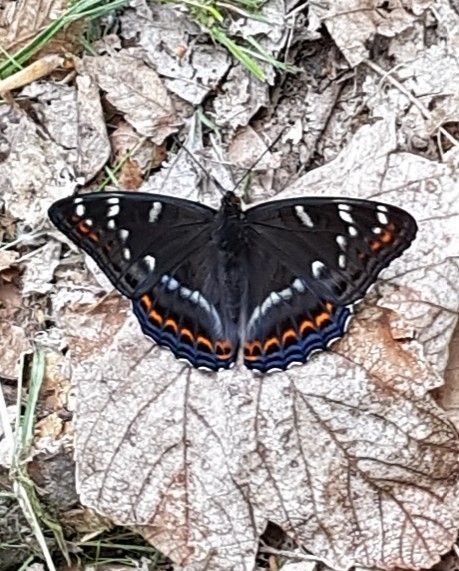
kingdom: Animalia
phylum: Arthropoda
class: Insecta
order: Lepidoptera
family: Nymphalidae
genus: Limenitis
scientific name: Limenitis populi
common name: Poplar admiral
